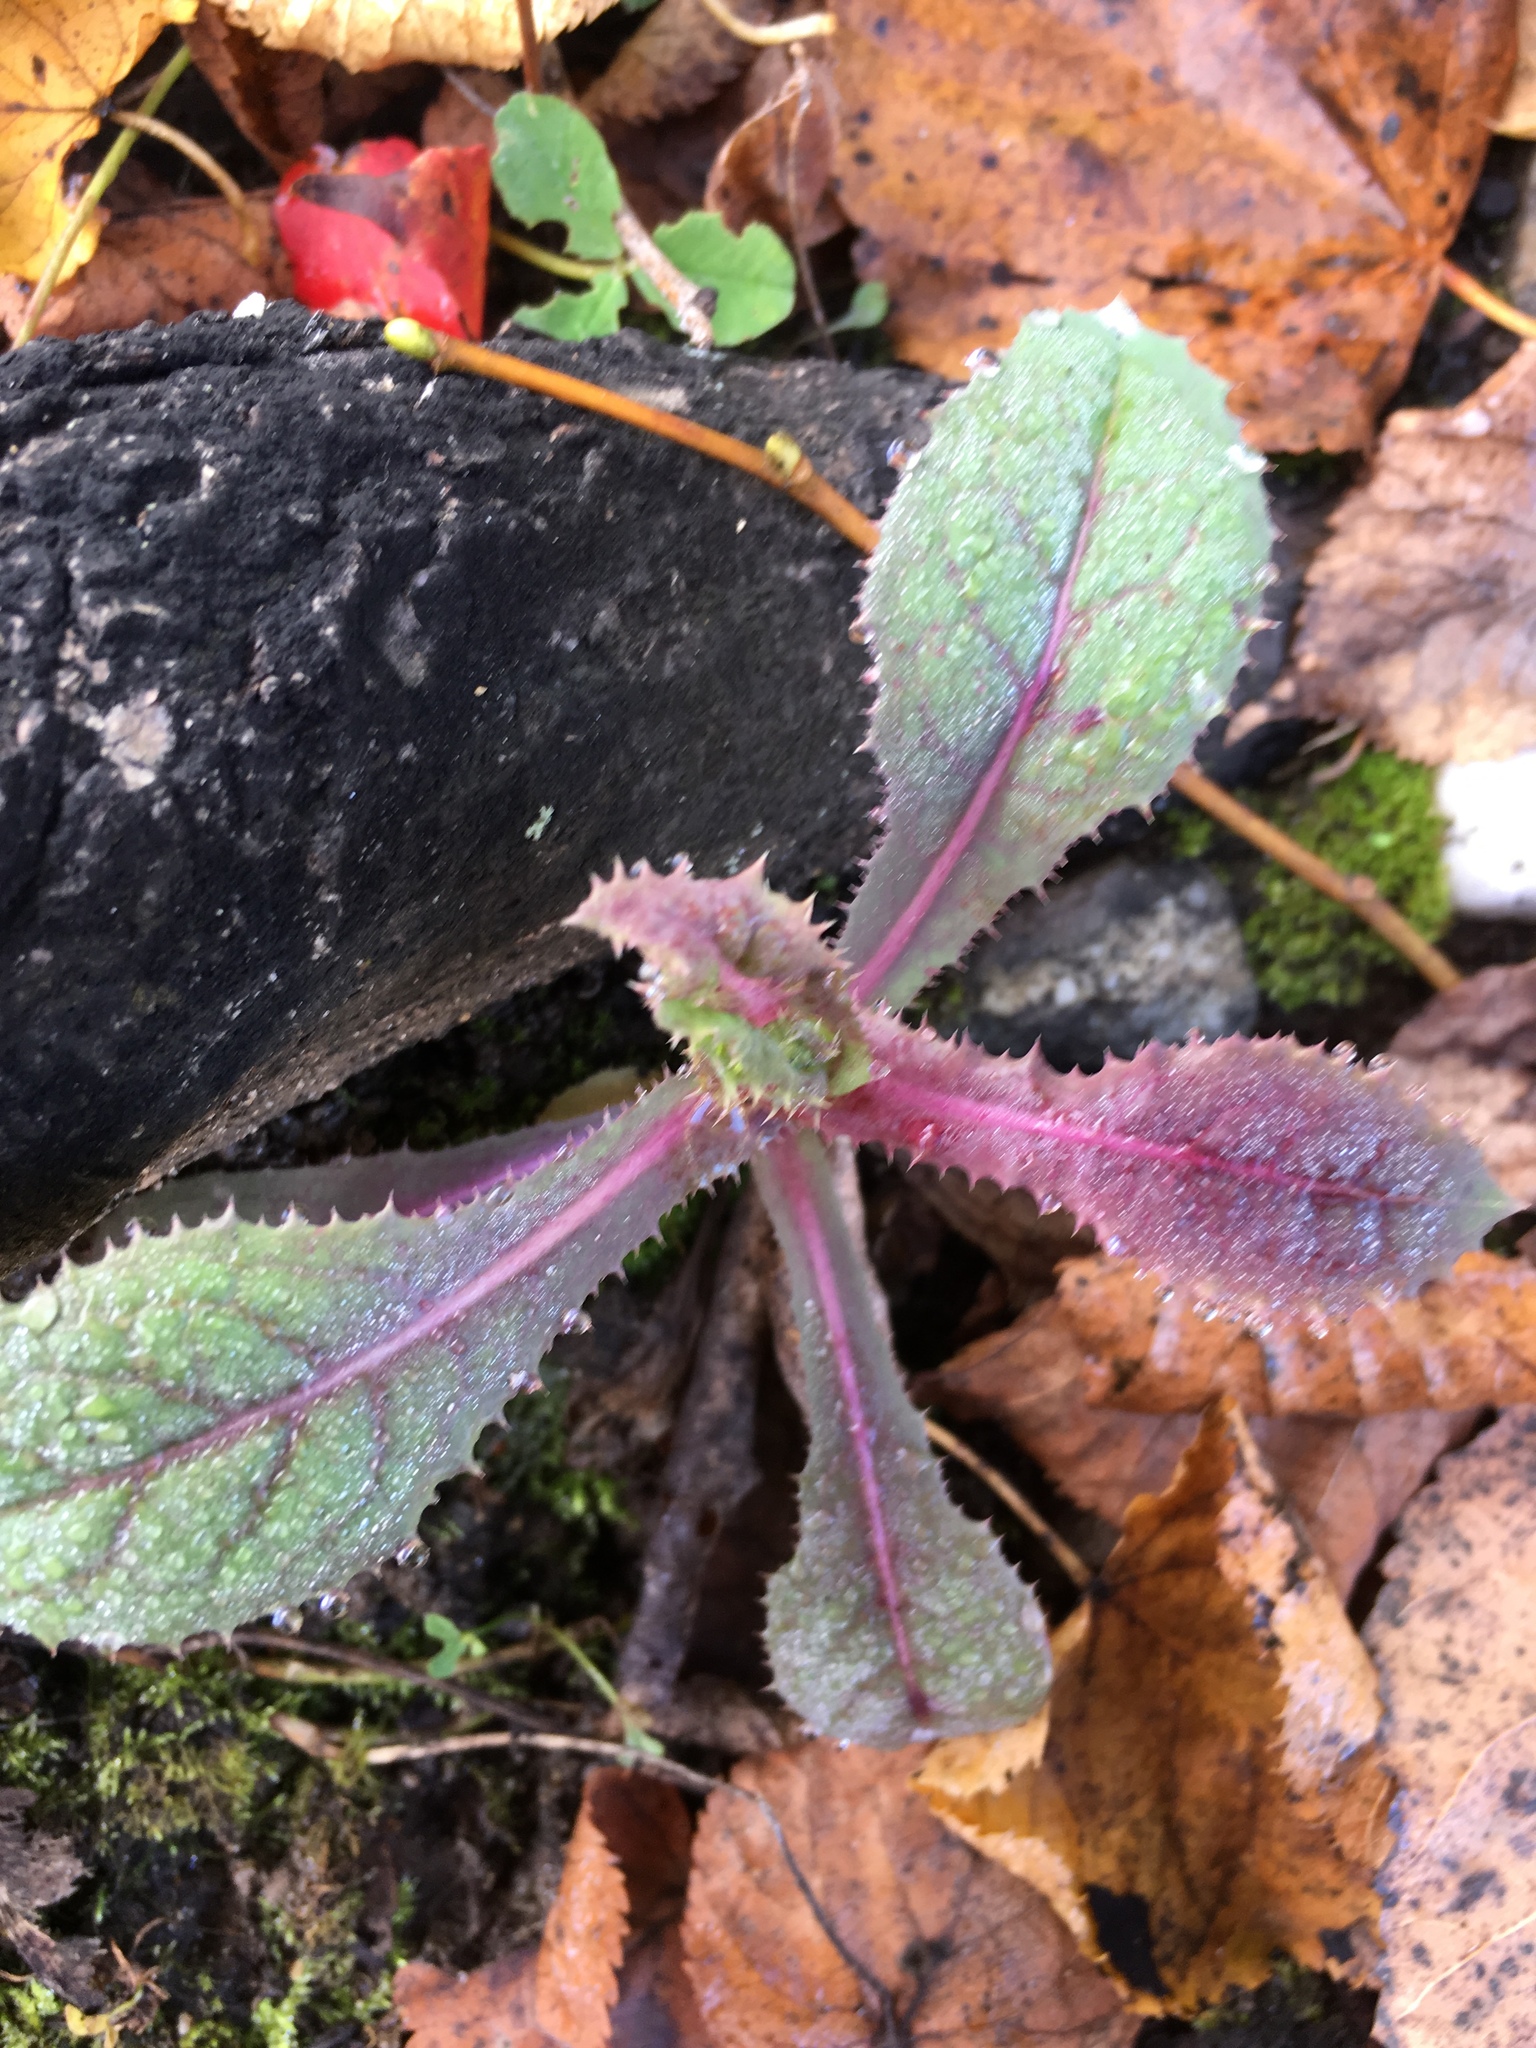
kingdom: Plantae
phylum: Tracheophyta
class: Magnoliopsida
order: Asterales
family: Asteraceae
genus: Sonchus
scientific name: Sonchus asper
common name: Prickly sow-thistle
